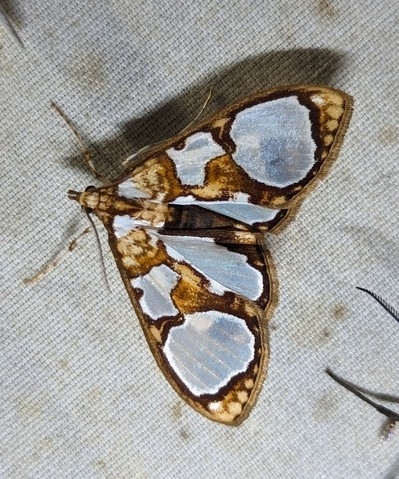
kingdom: Animalia
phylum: Arthropoda
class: Insecta
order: Lepidoptera
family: Crambidae
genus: Glyphodes
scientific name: Glyphodes grandisalis
